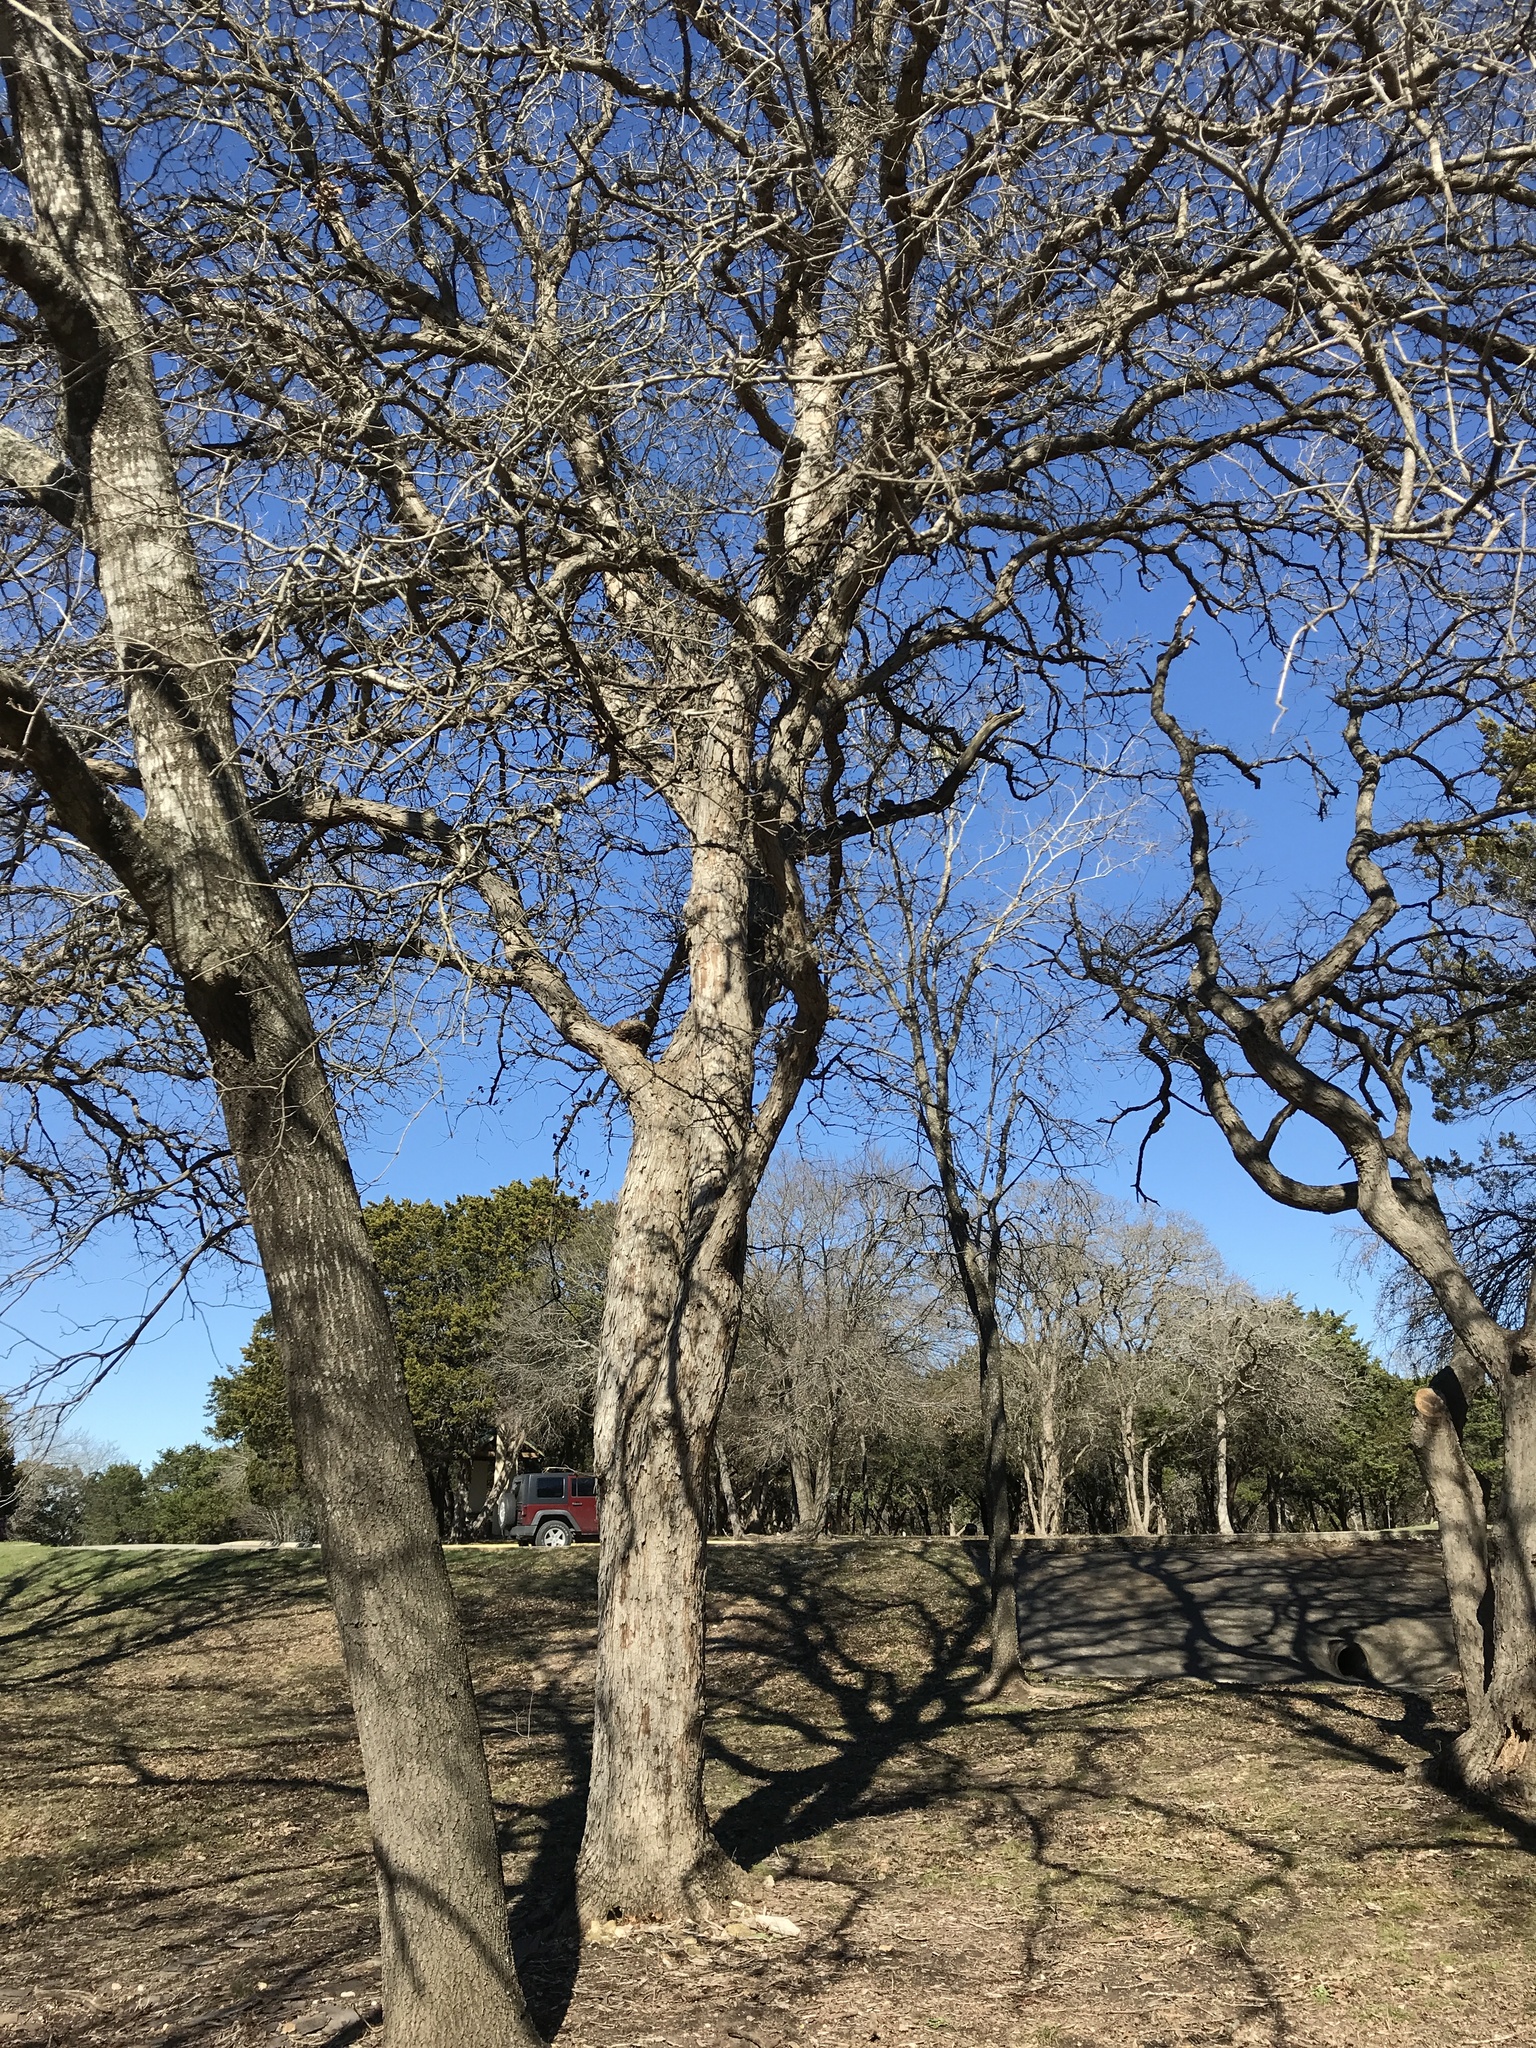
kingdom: Plantae
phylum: Tracheophyta
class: Magnoliopsida
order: Fagales
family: Fagaceae
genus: Quercus
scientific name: Quercus buckleyi
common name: Buckley oak
